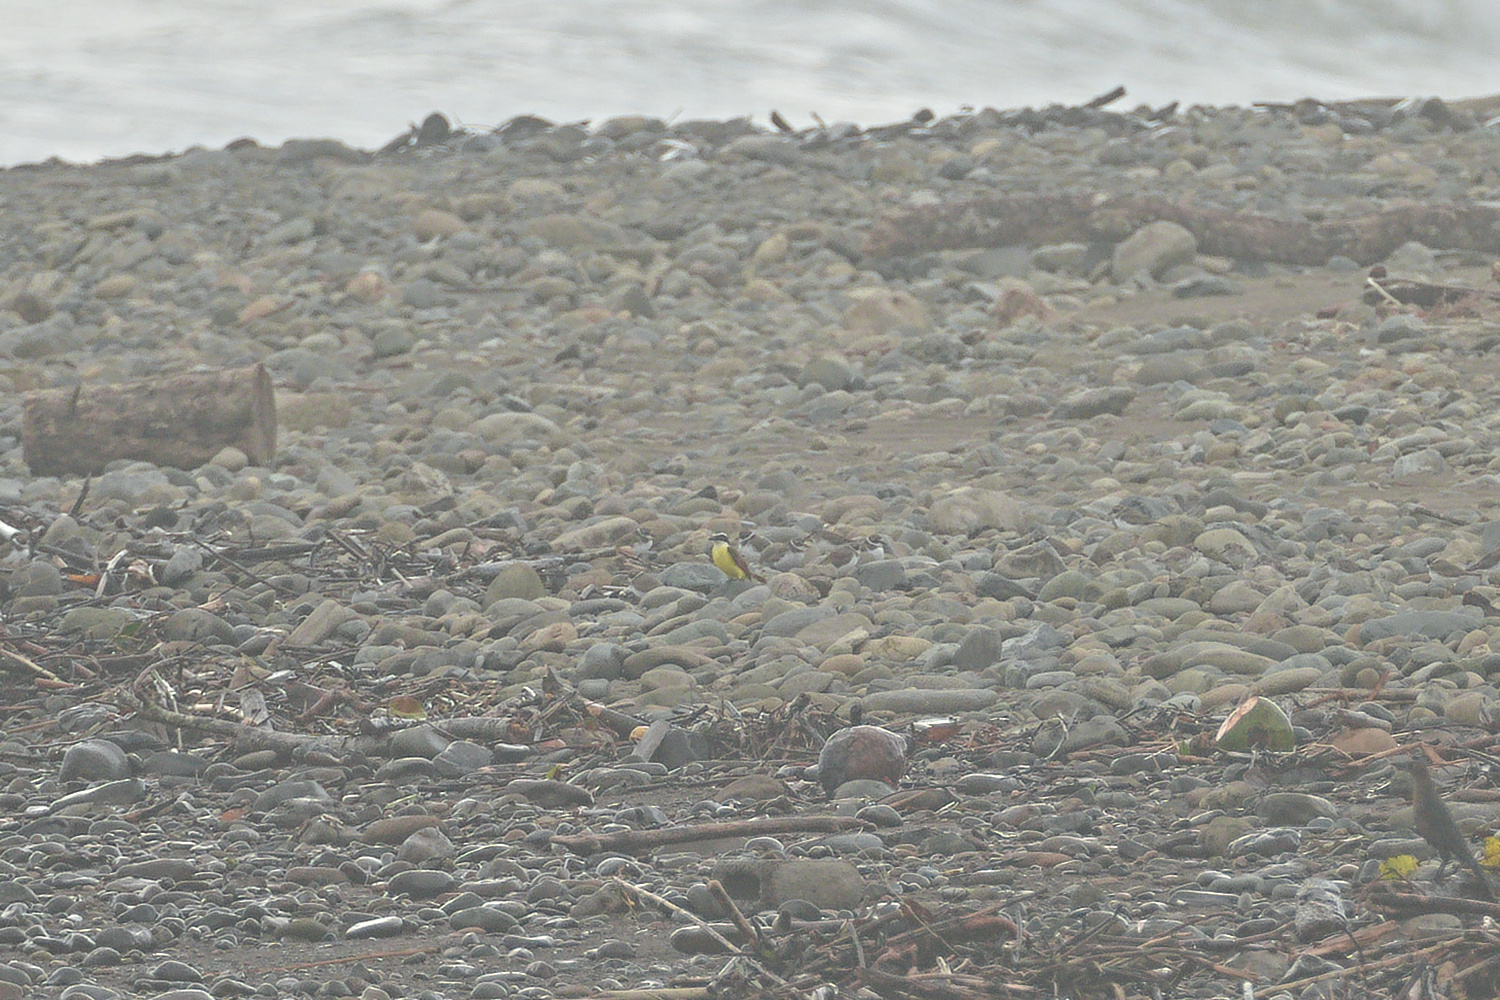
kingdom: Animalia
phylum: Chordata
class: Aves
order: Passeriformes
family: Tyrannidae
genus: Pitangus
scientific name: Pitangus sulphuratus
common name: Great kiskadee
